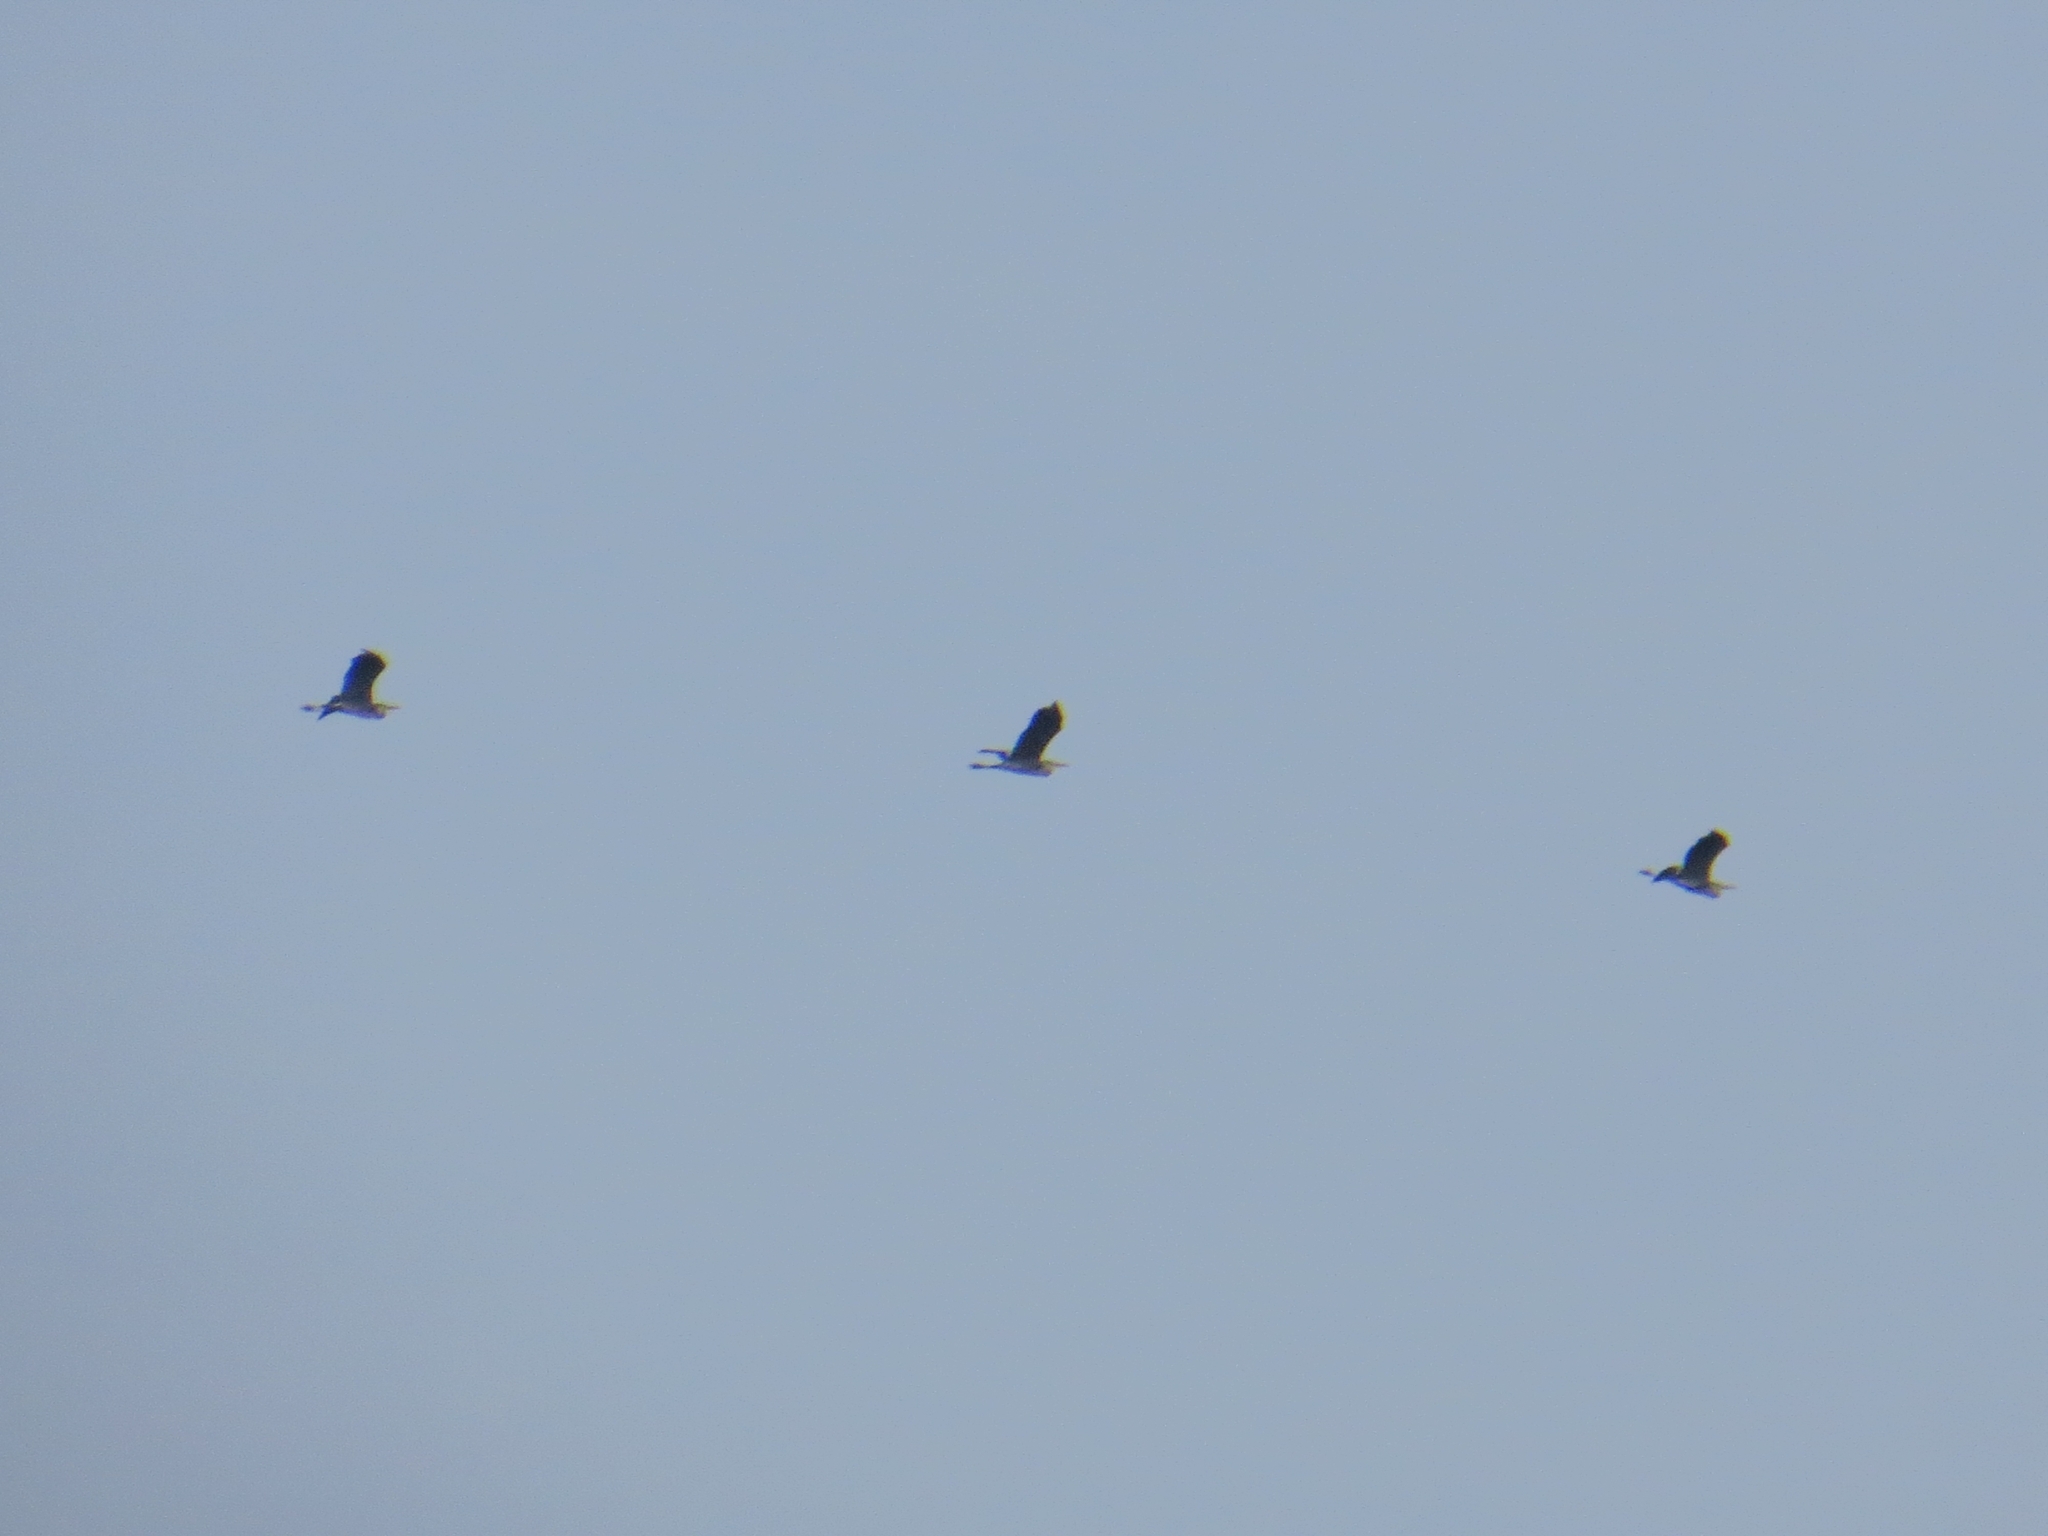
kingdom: Animalia
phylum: Chordata
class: Aves
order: Pelecaniformes
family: Ardeidae
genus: Ardea
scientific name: Ardea cinerea
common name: Grey heron
